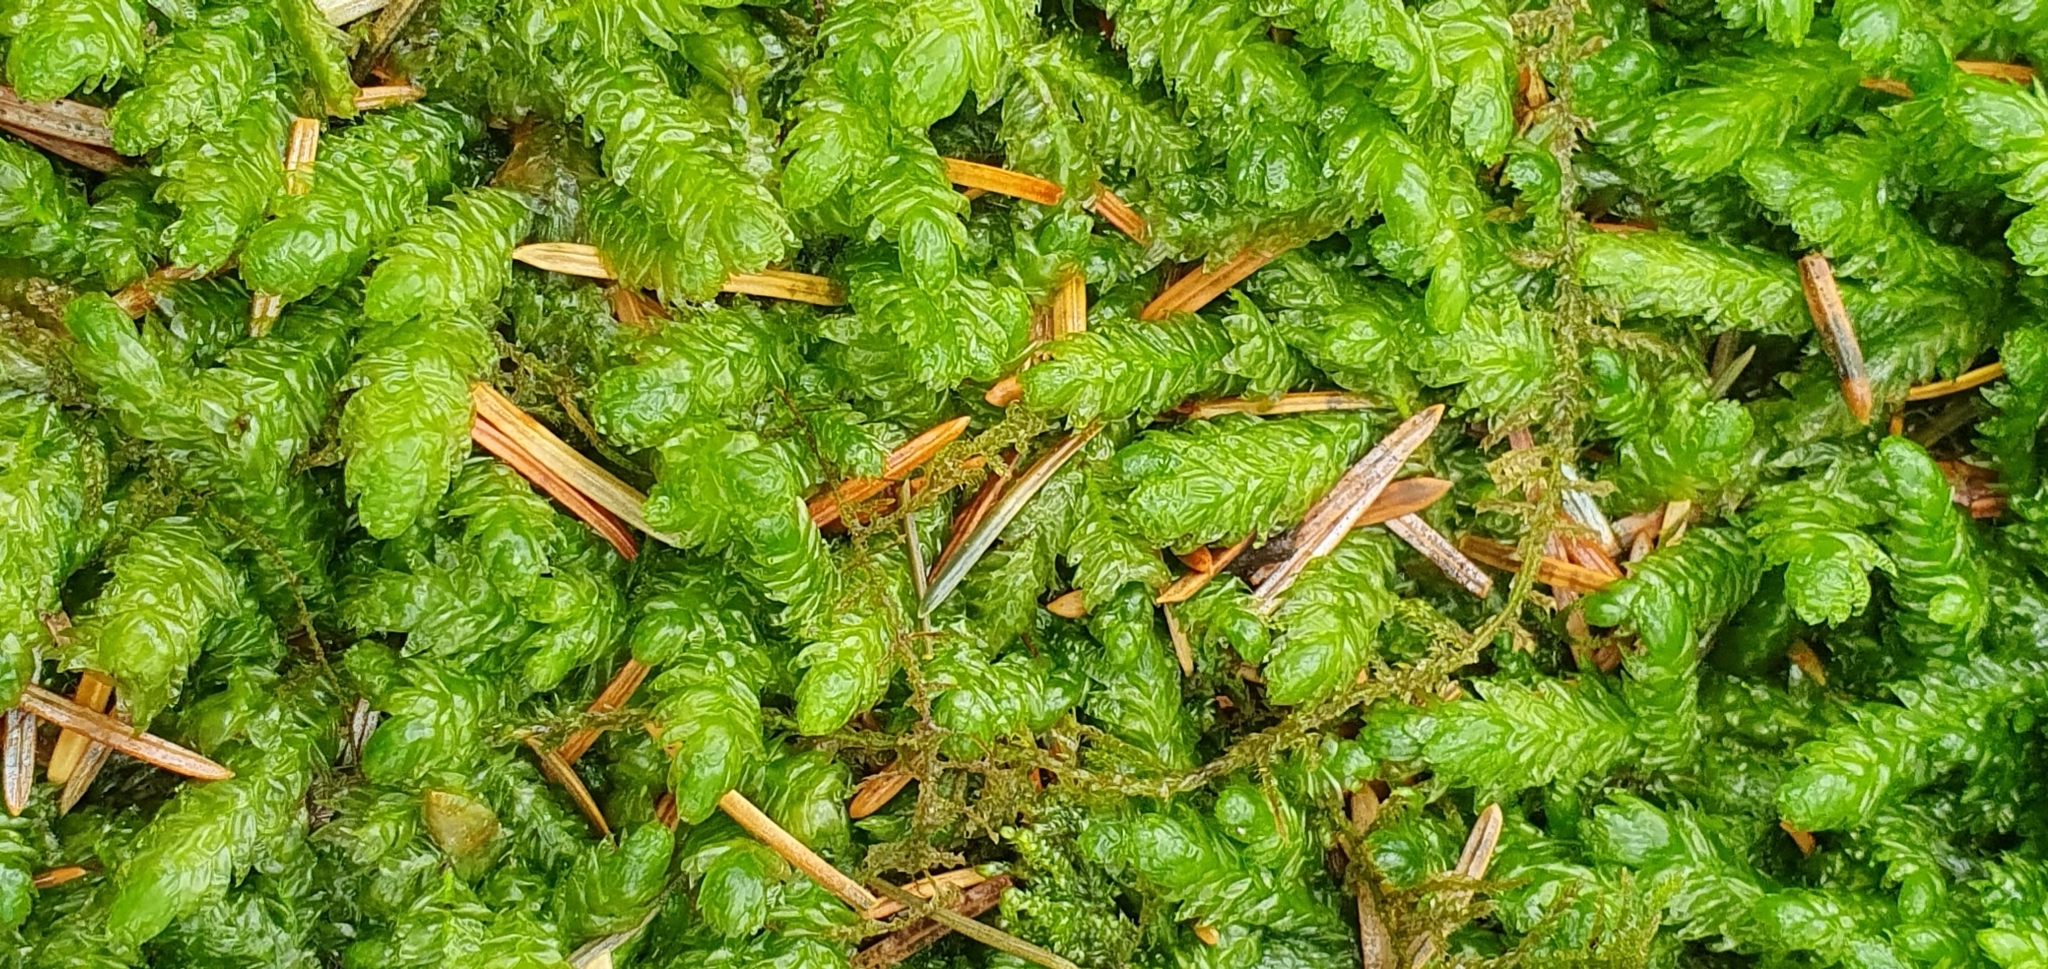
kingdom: Plantae
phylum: Bryophyta
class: Bryopsida
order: Hypnales
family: Plagiotheciaceae
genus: Plagiothecium
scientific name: Plagiothecium undulatum
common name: Waved silk-moss
